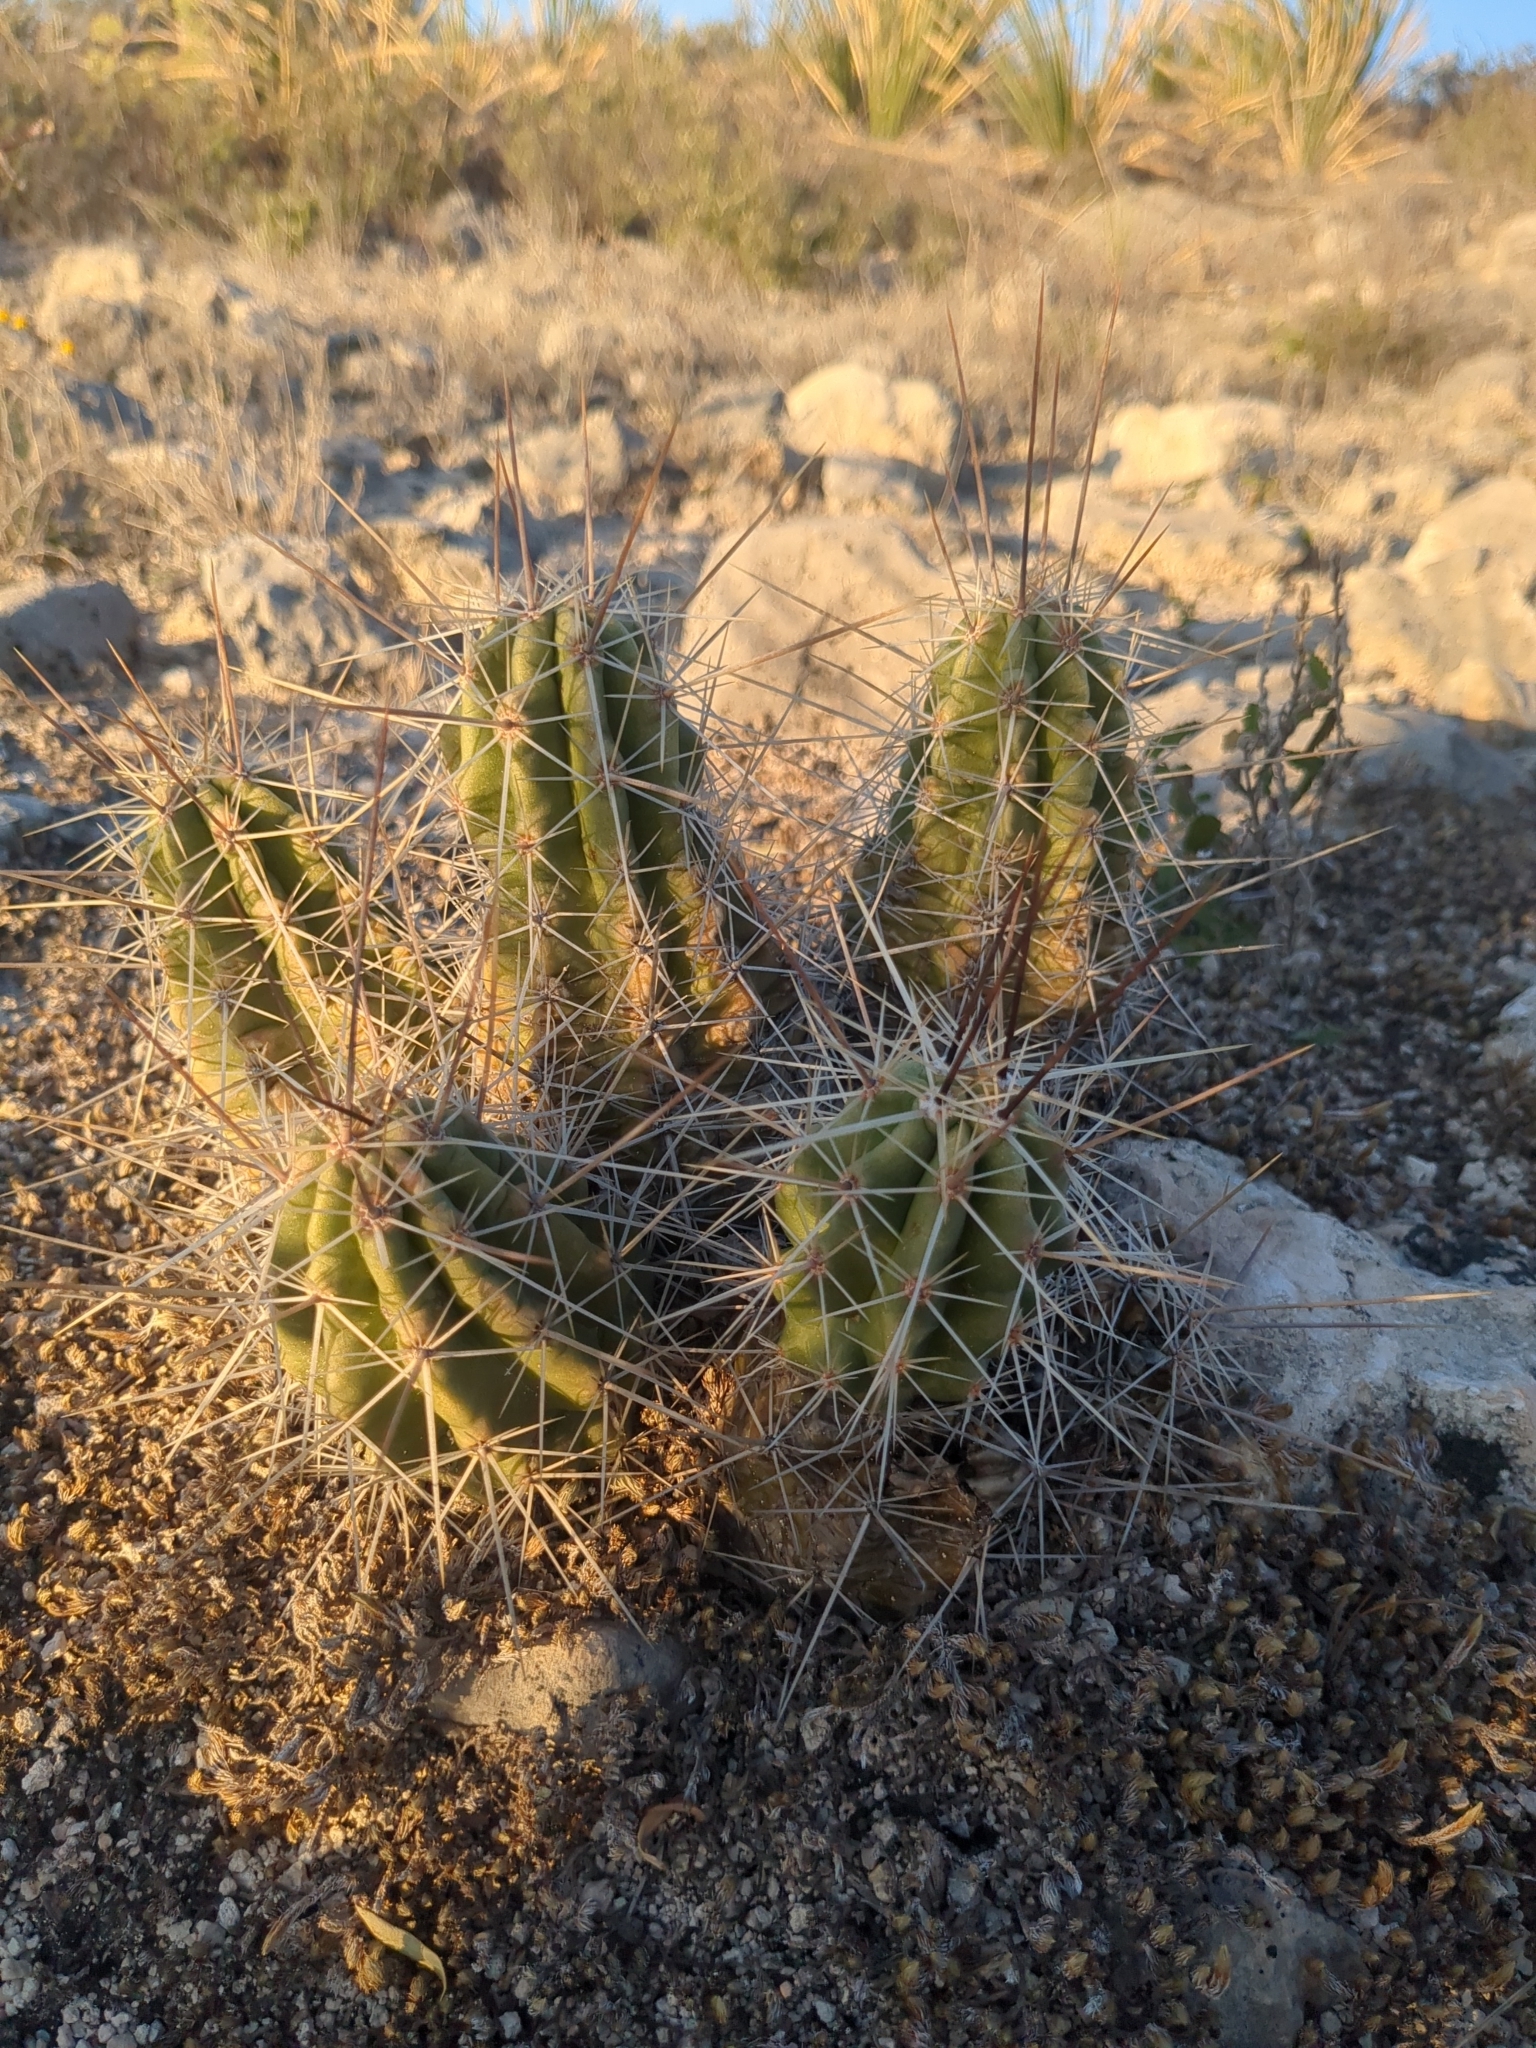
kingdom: Plantae
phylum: Tracheophyta
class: Magnoliopsida
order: Caryophyllales
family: Cactaceae
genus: Echinocereus
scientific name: Echinocereus enneacanthus
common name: Pitaya
